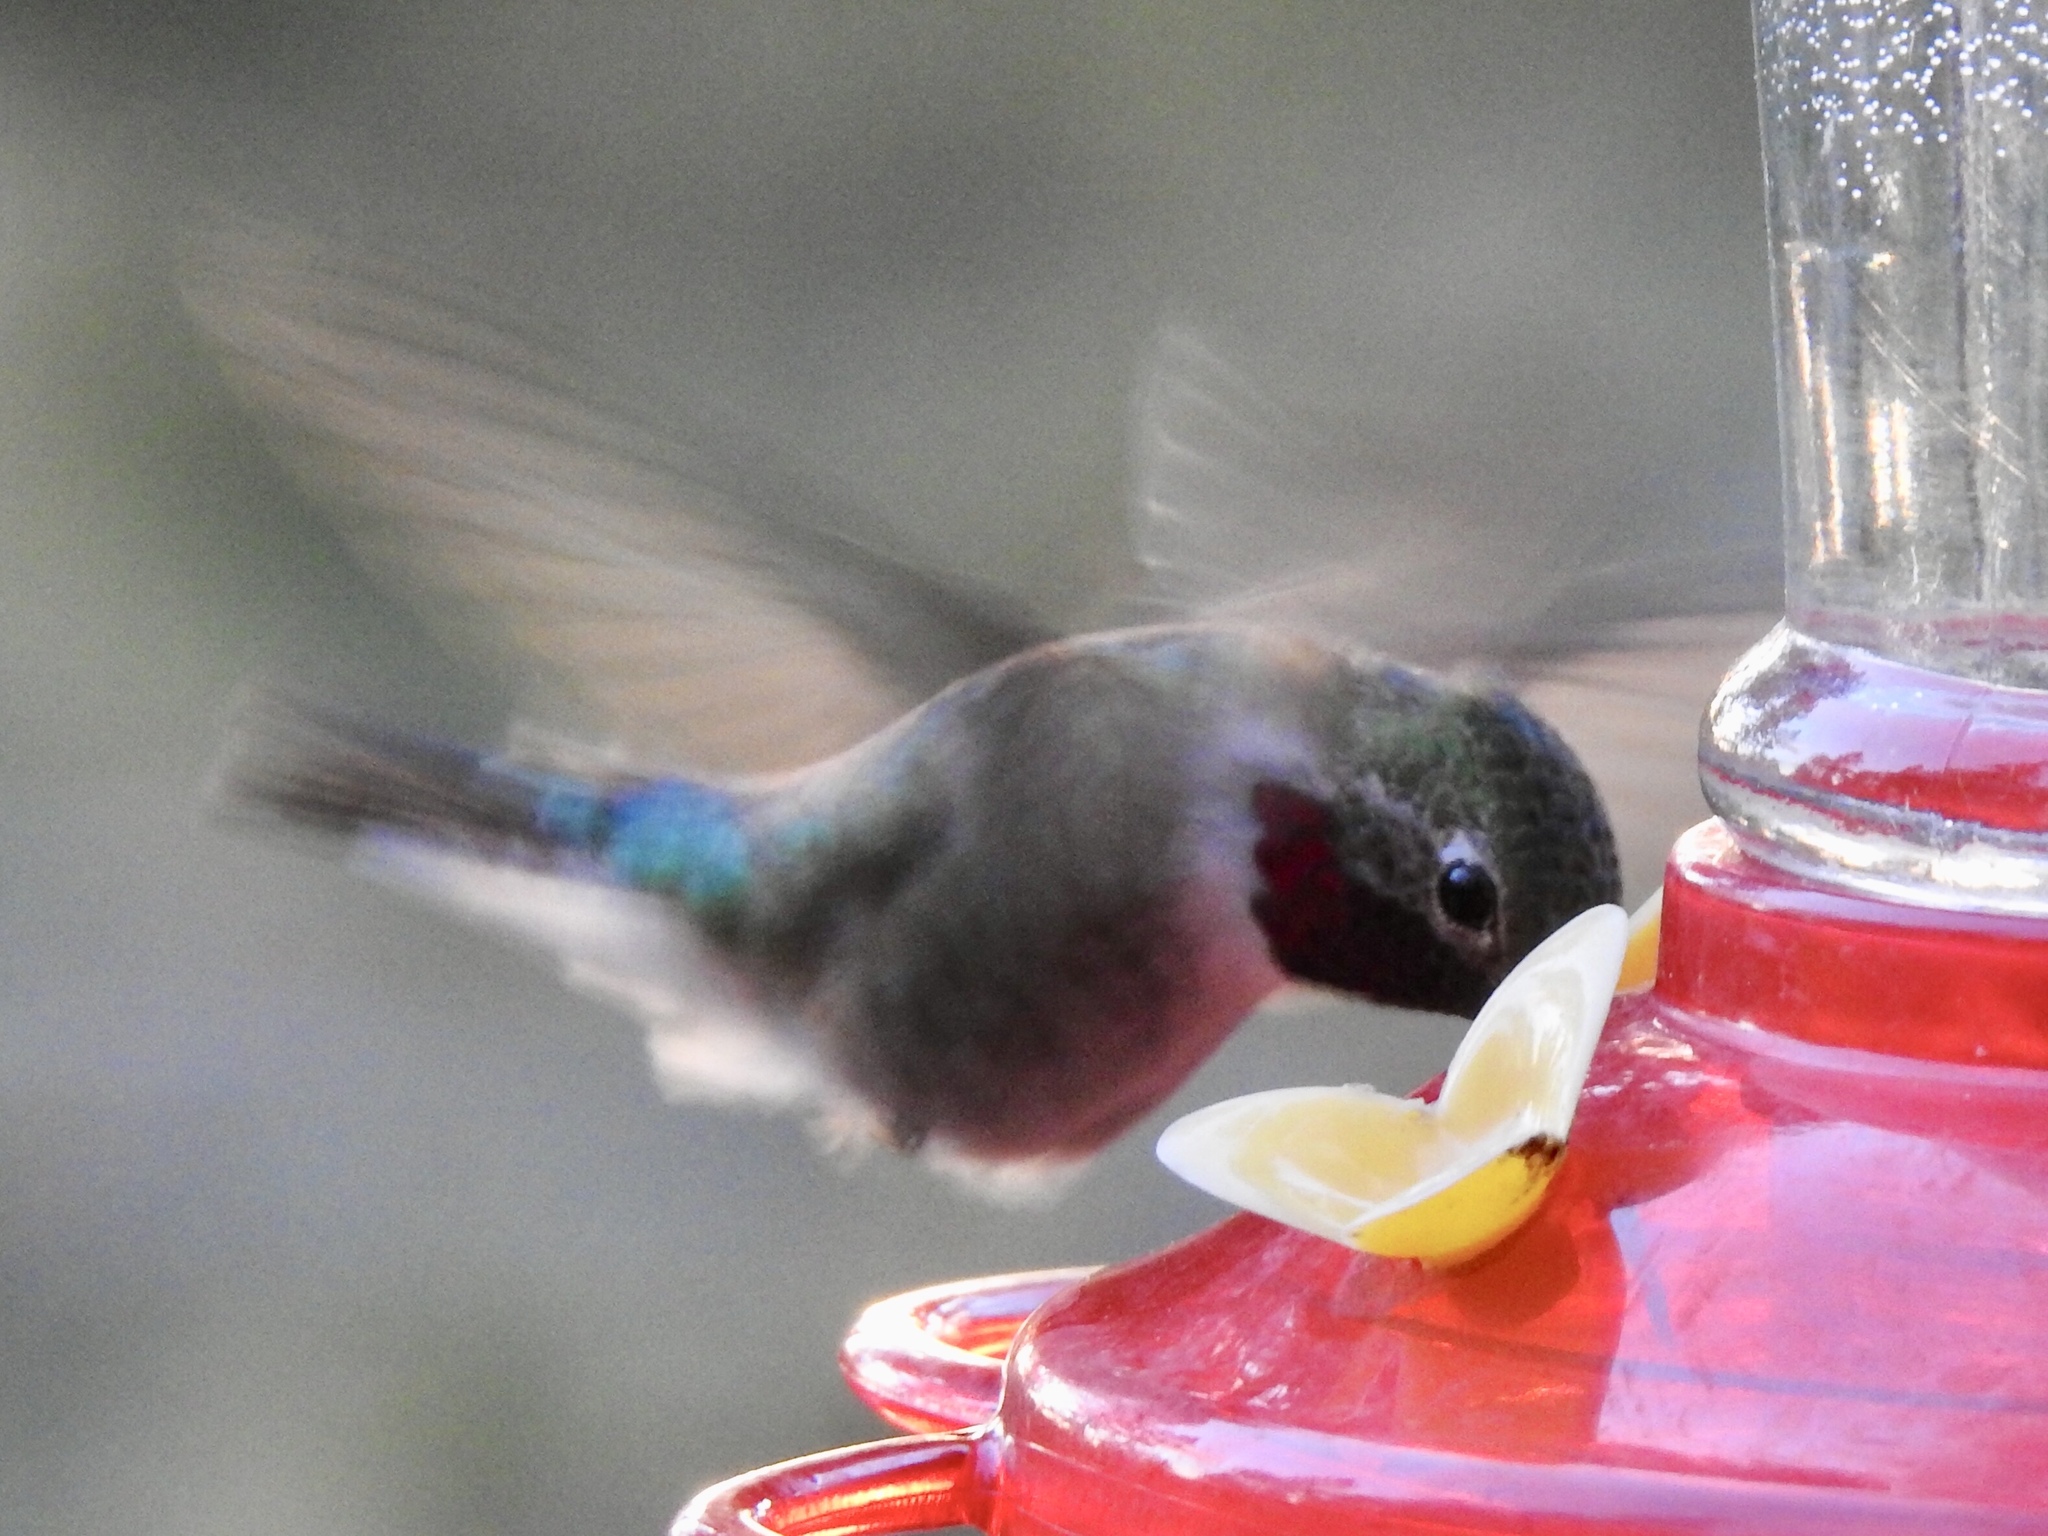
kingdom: Animalia
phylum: Chordata
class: Aves
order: Apodiformes
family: Trochilidae
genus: Selasphorus
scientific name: Selasphorus platycercus
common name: Broad-tailed hummingbird
